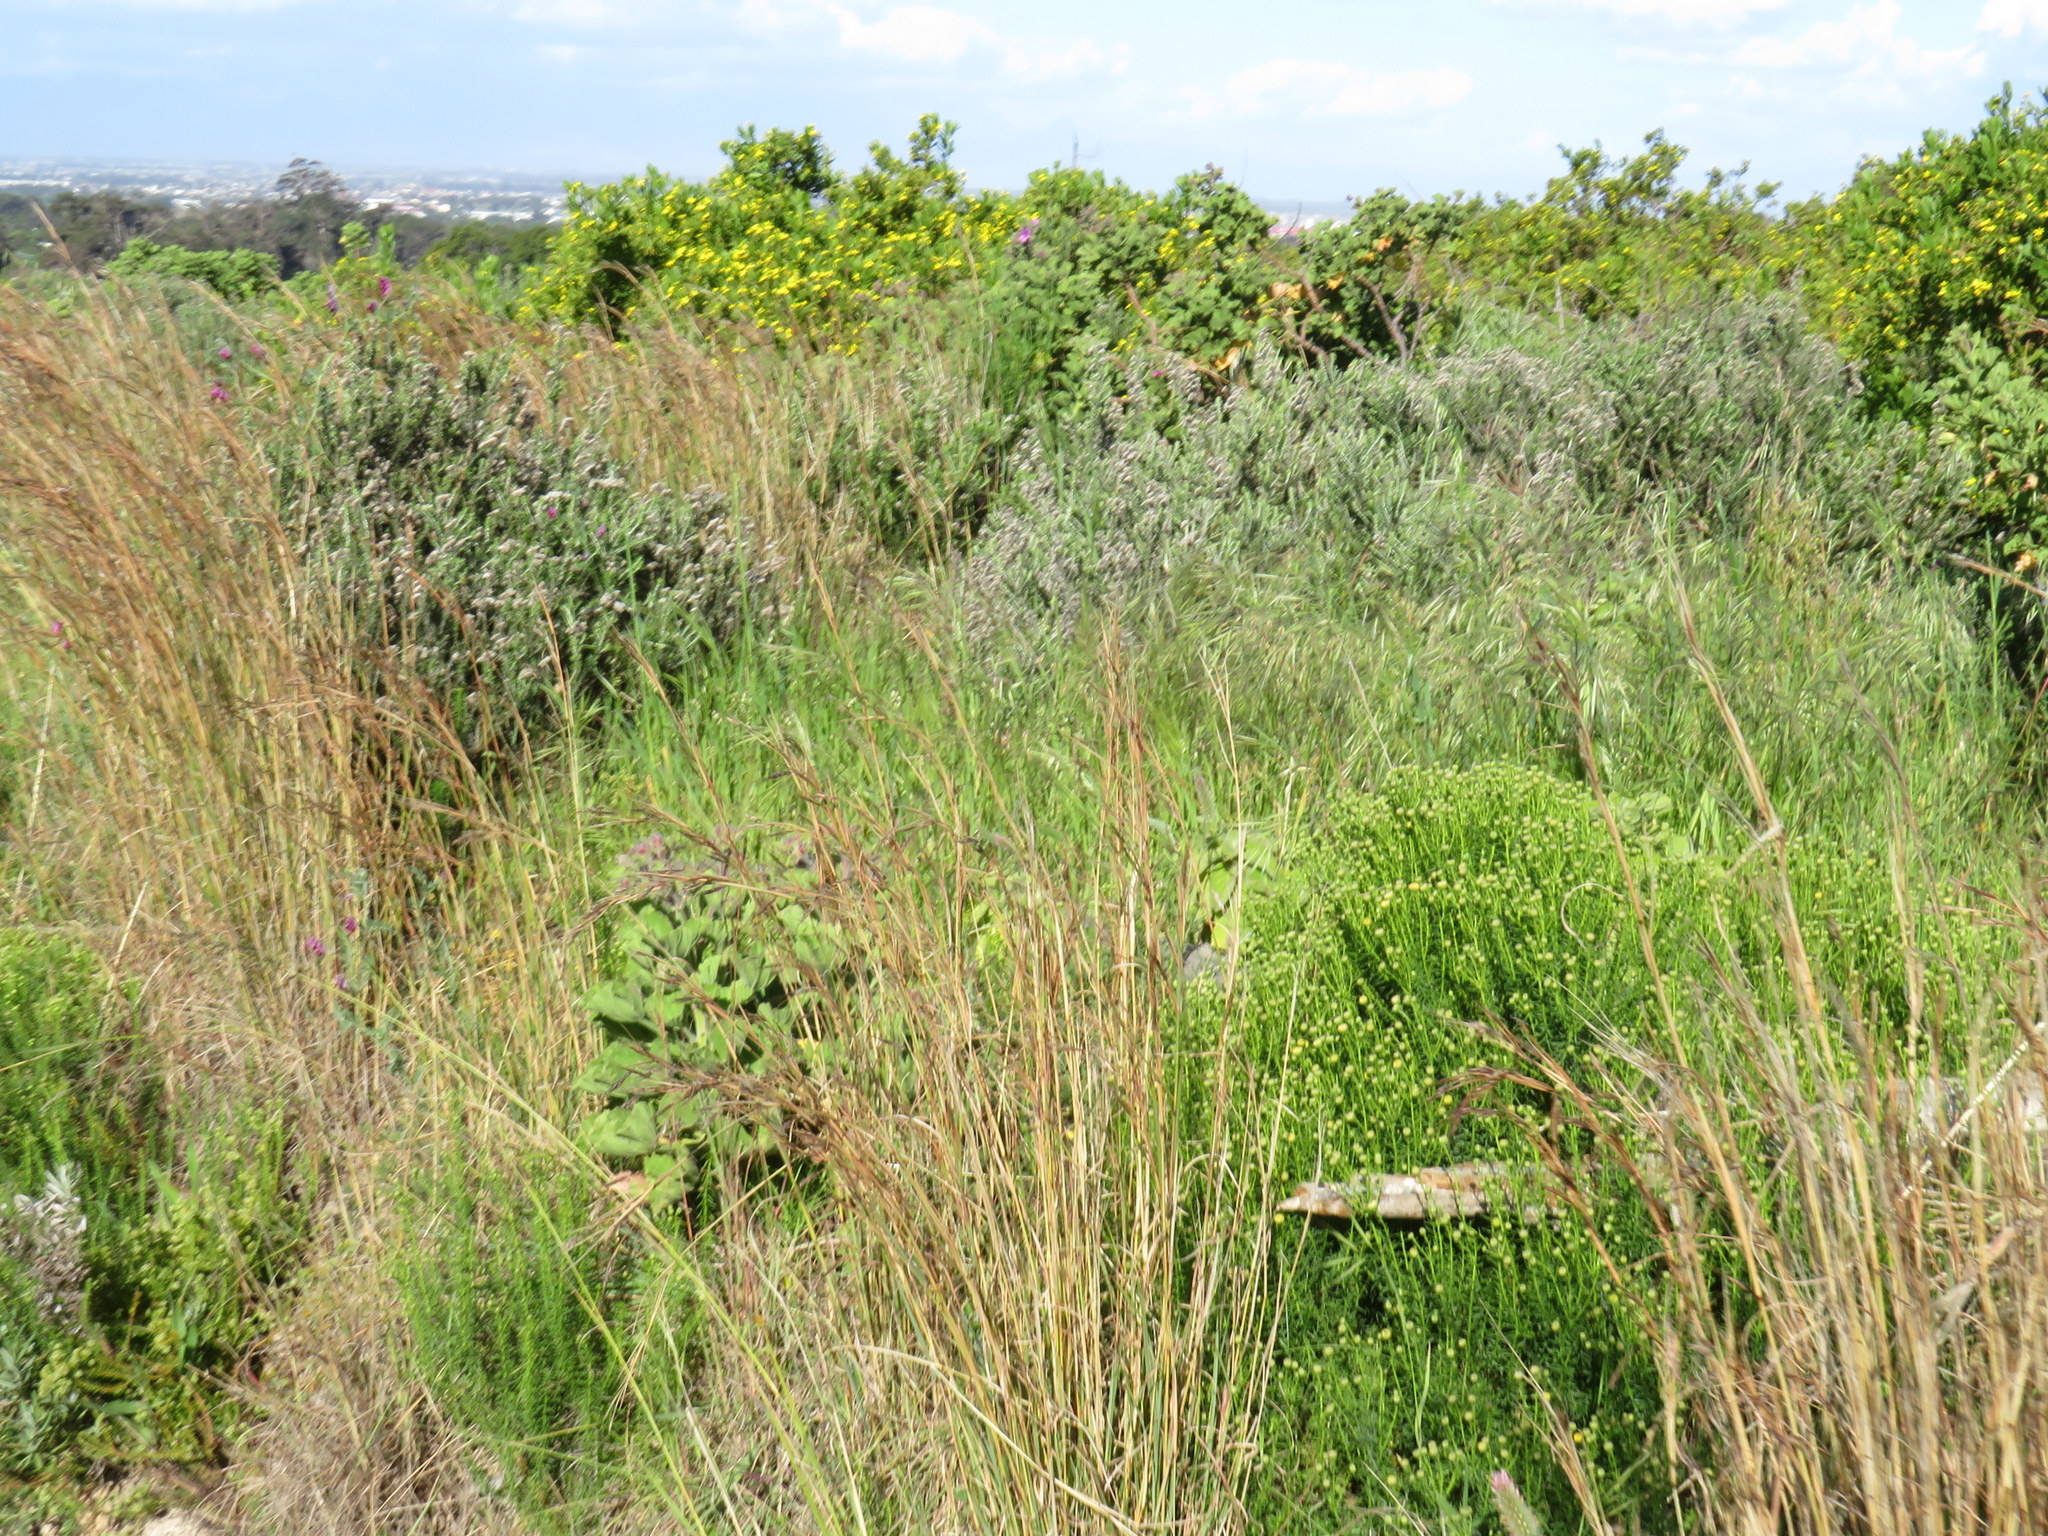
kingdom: Plantae
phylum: Tracheophyta
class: Liliopsida
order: Poales
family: Poaceae
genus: Hyparrhenia
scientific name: Hyparrhenia hirta
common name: Thatching grass
